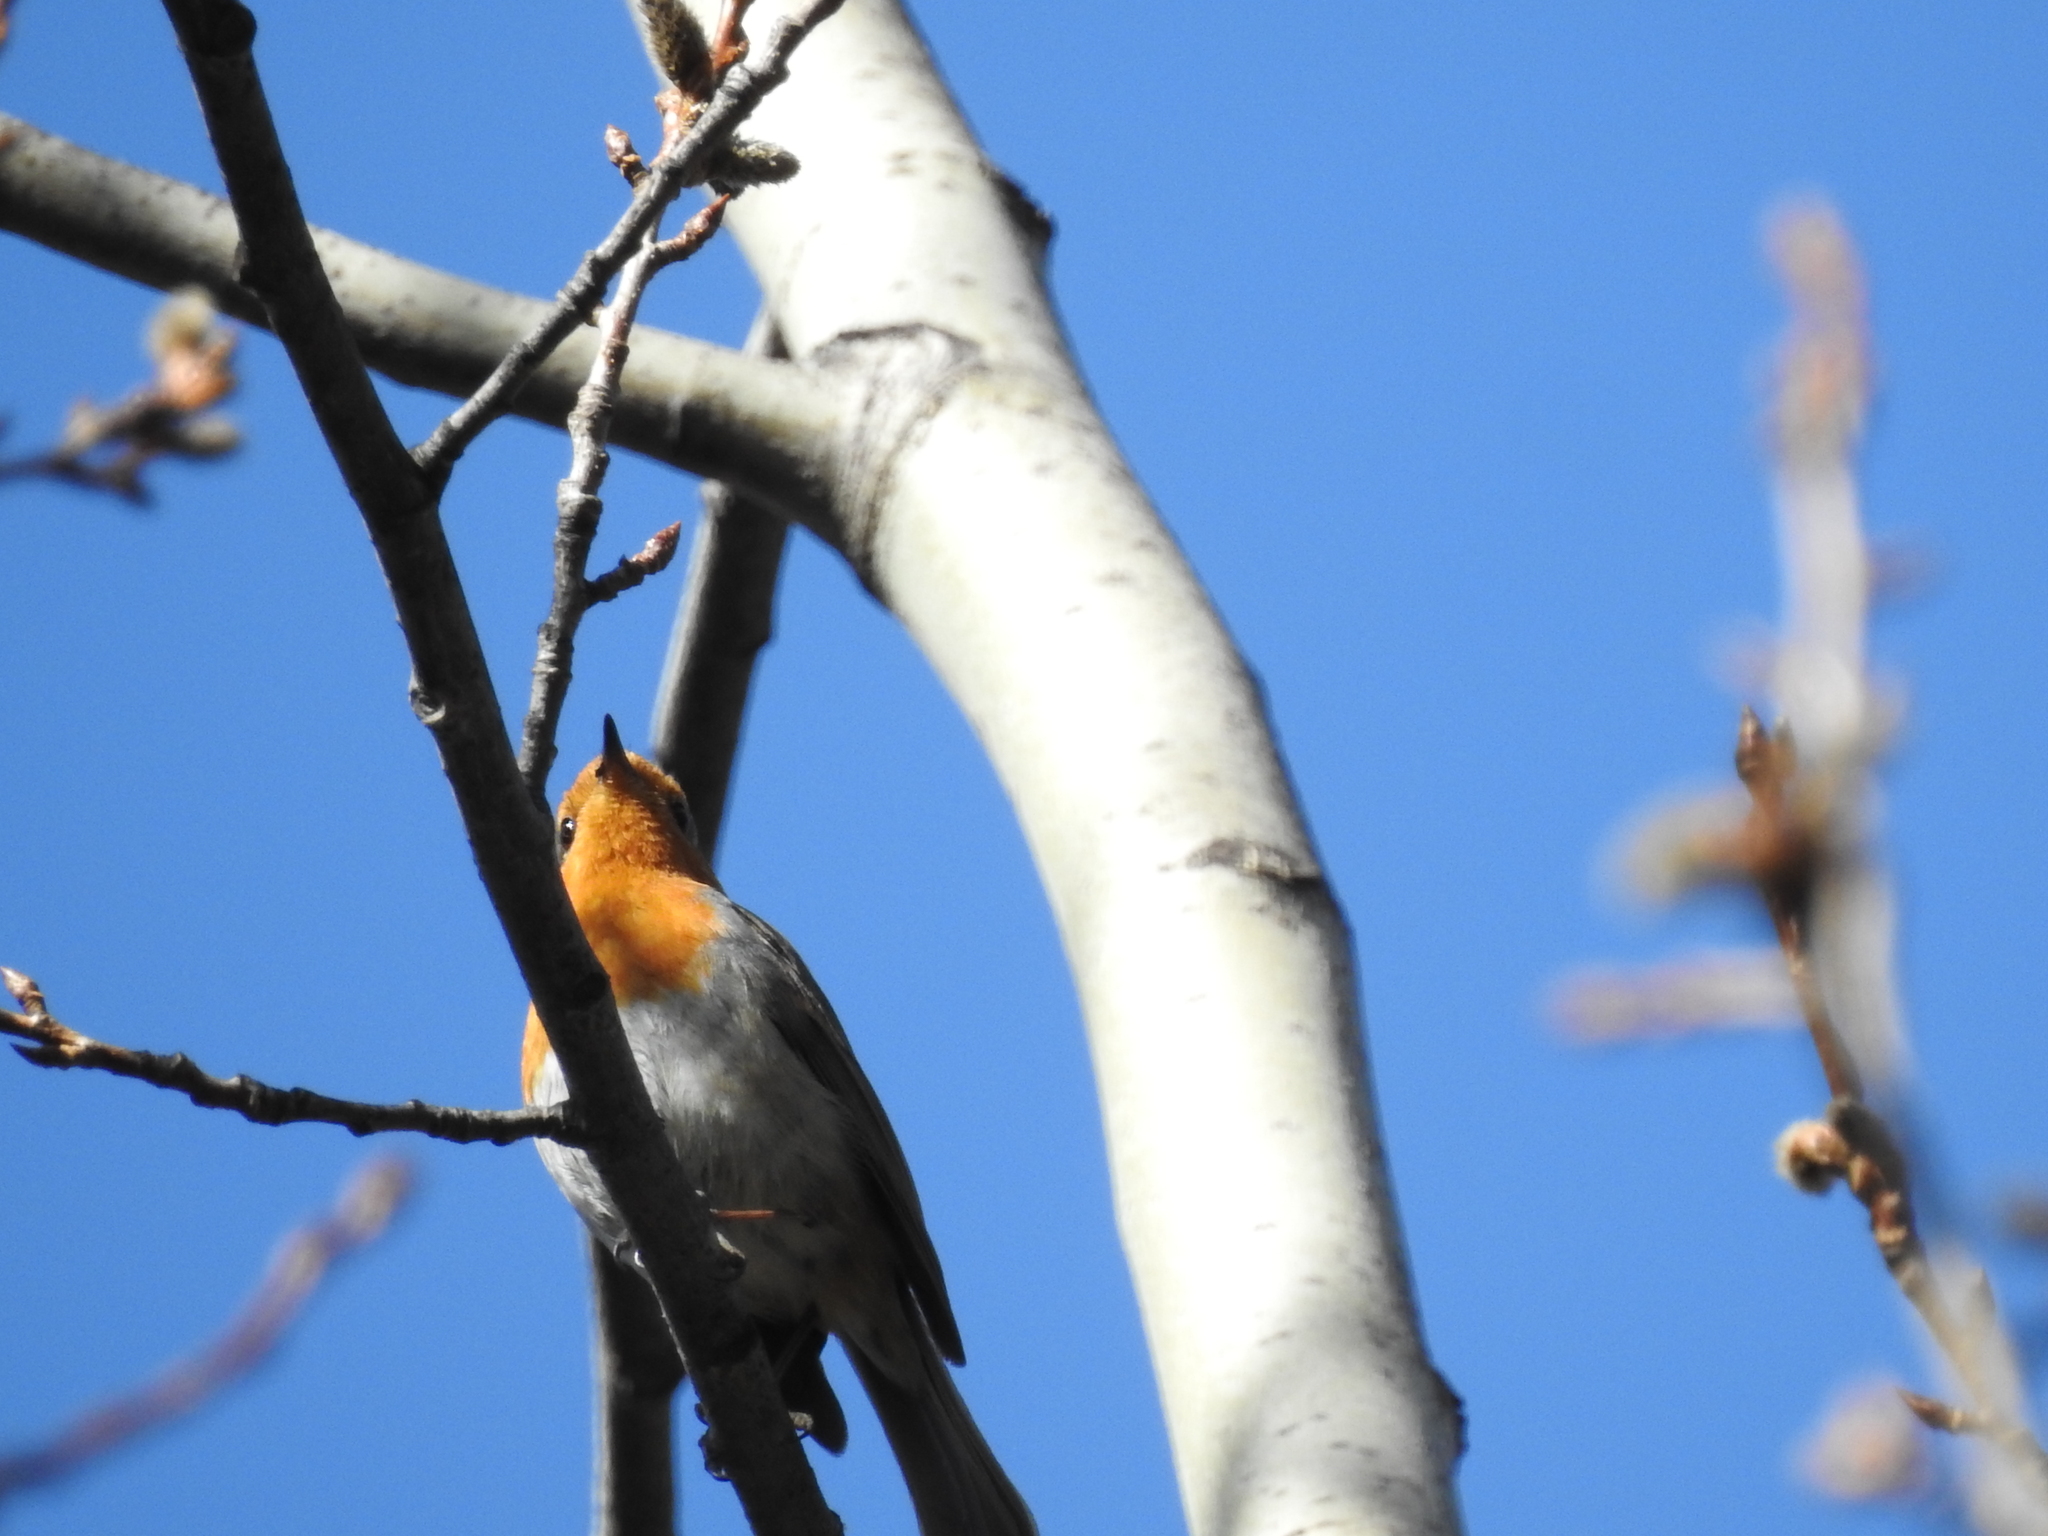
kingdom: Animalia
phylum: Chordata
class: Aves
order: Passeriformes
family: Muscicapidae
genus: Erithacus
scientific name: Erithacus rubecula
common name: European robin
